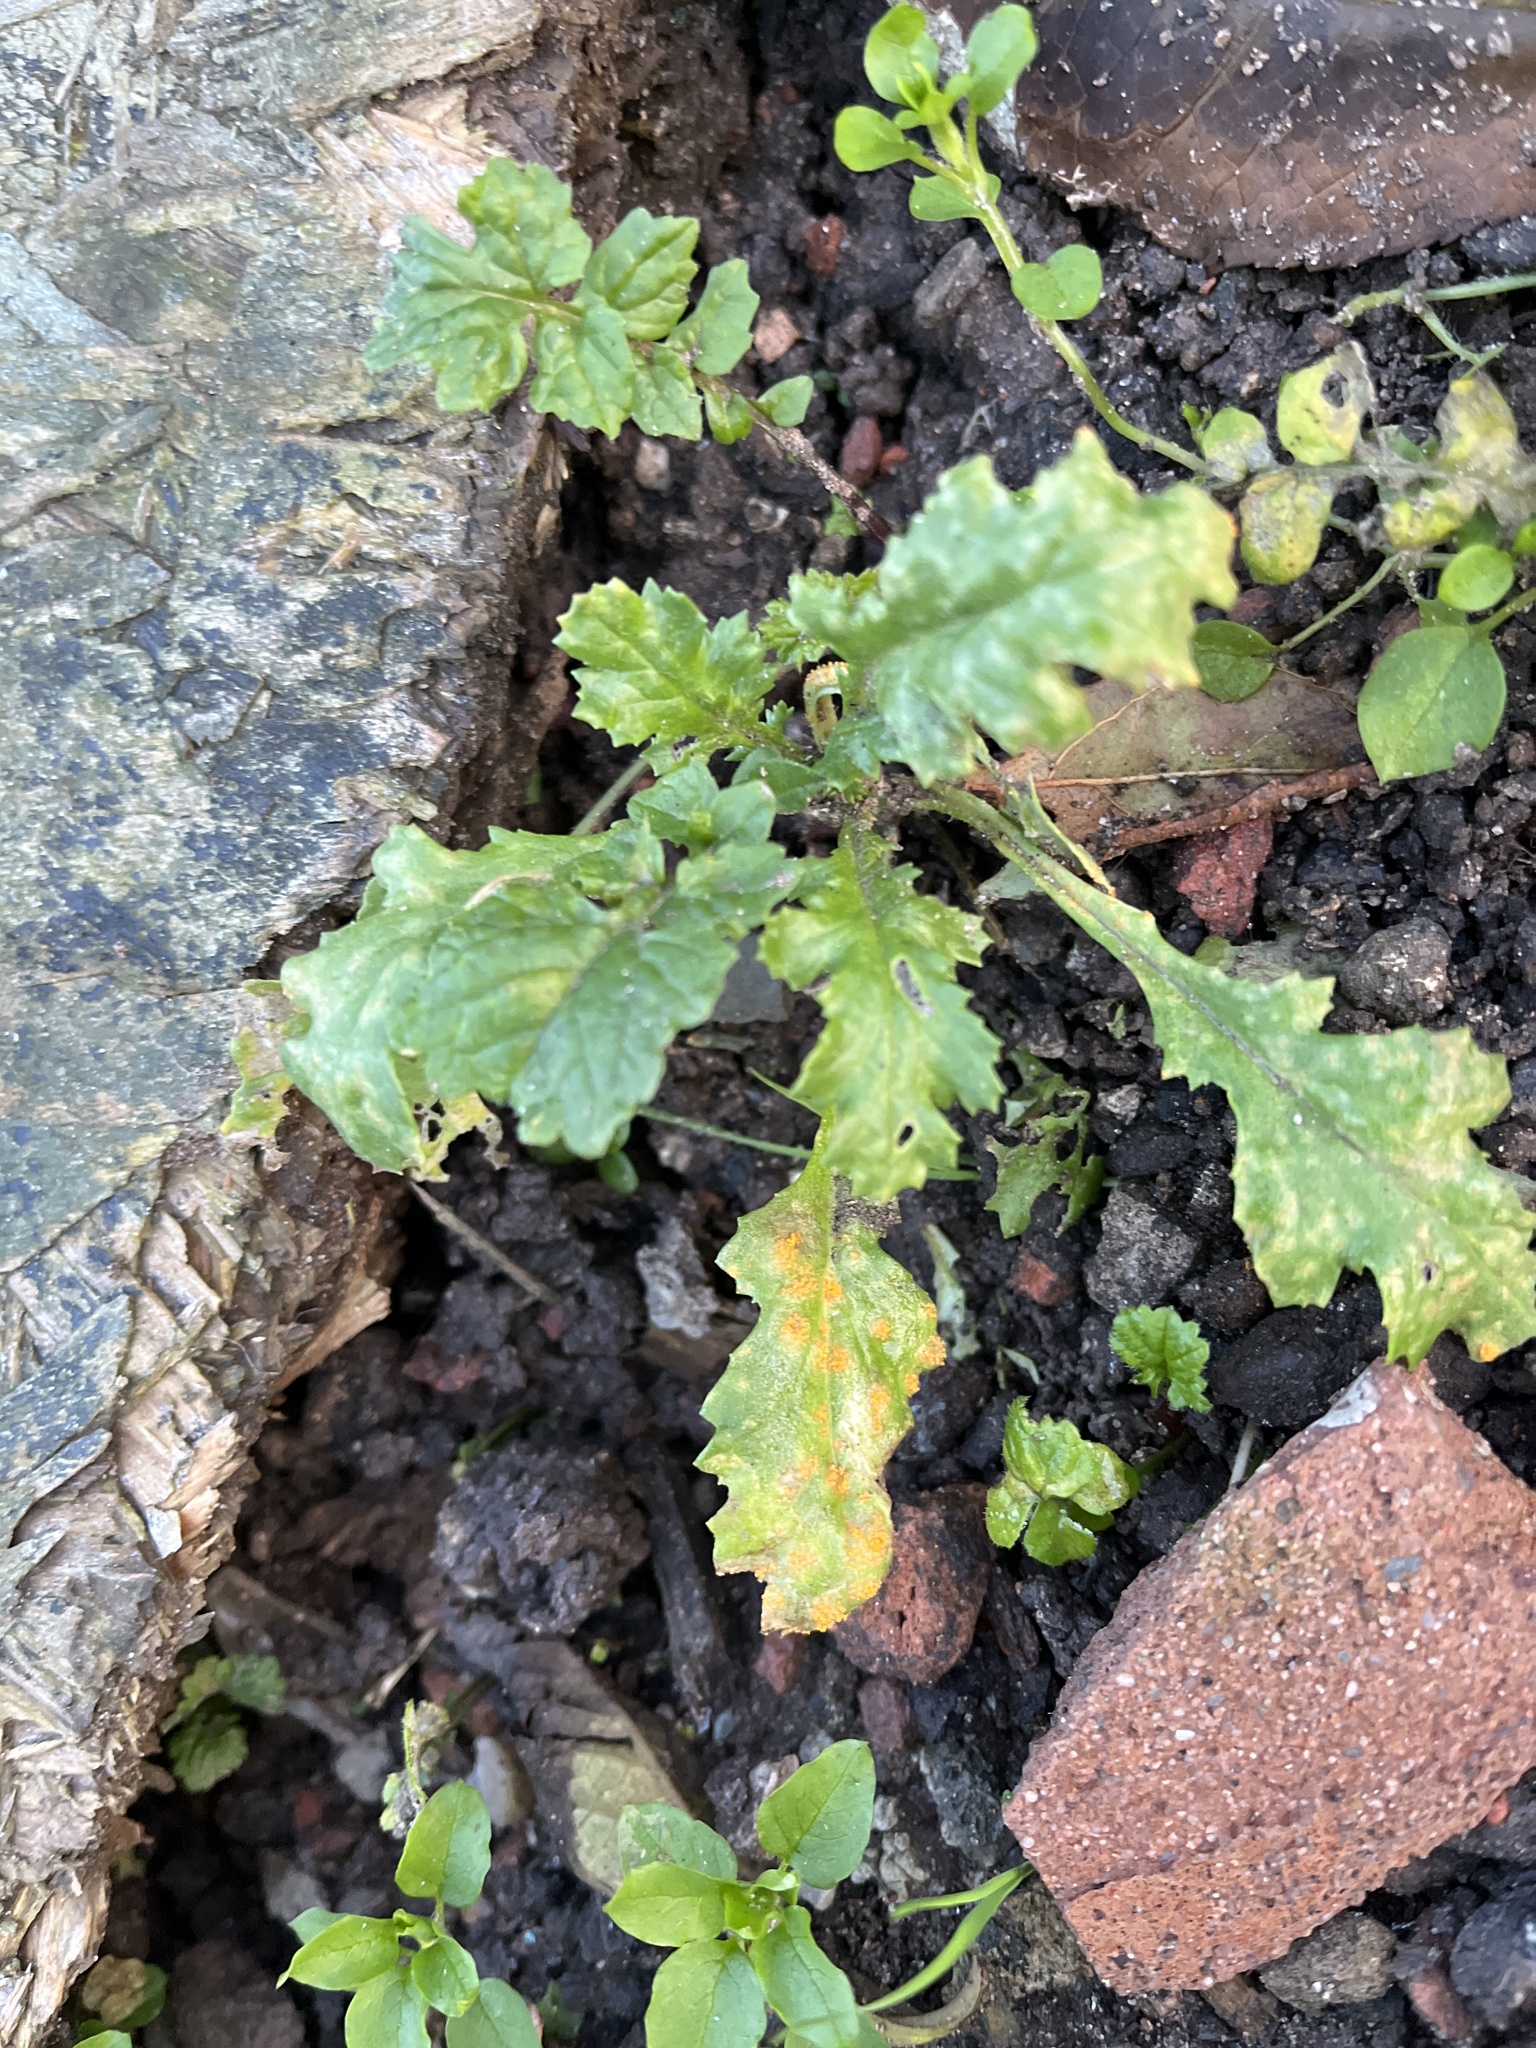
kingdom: Fungi
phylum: Basidiomycota
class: Pucciniomycetes
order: Pucciniales
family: Pucciniaceae
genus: Puccinia
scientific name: Puccinia lagenophorae
